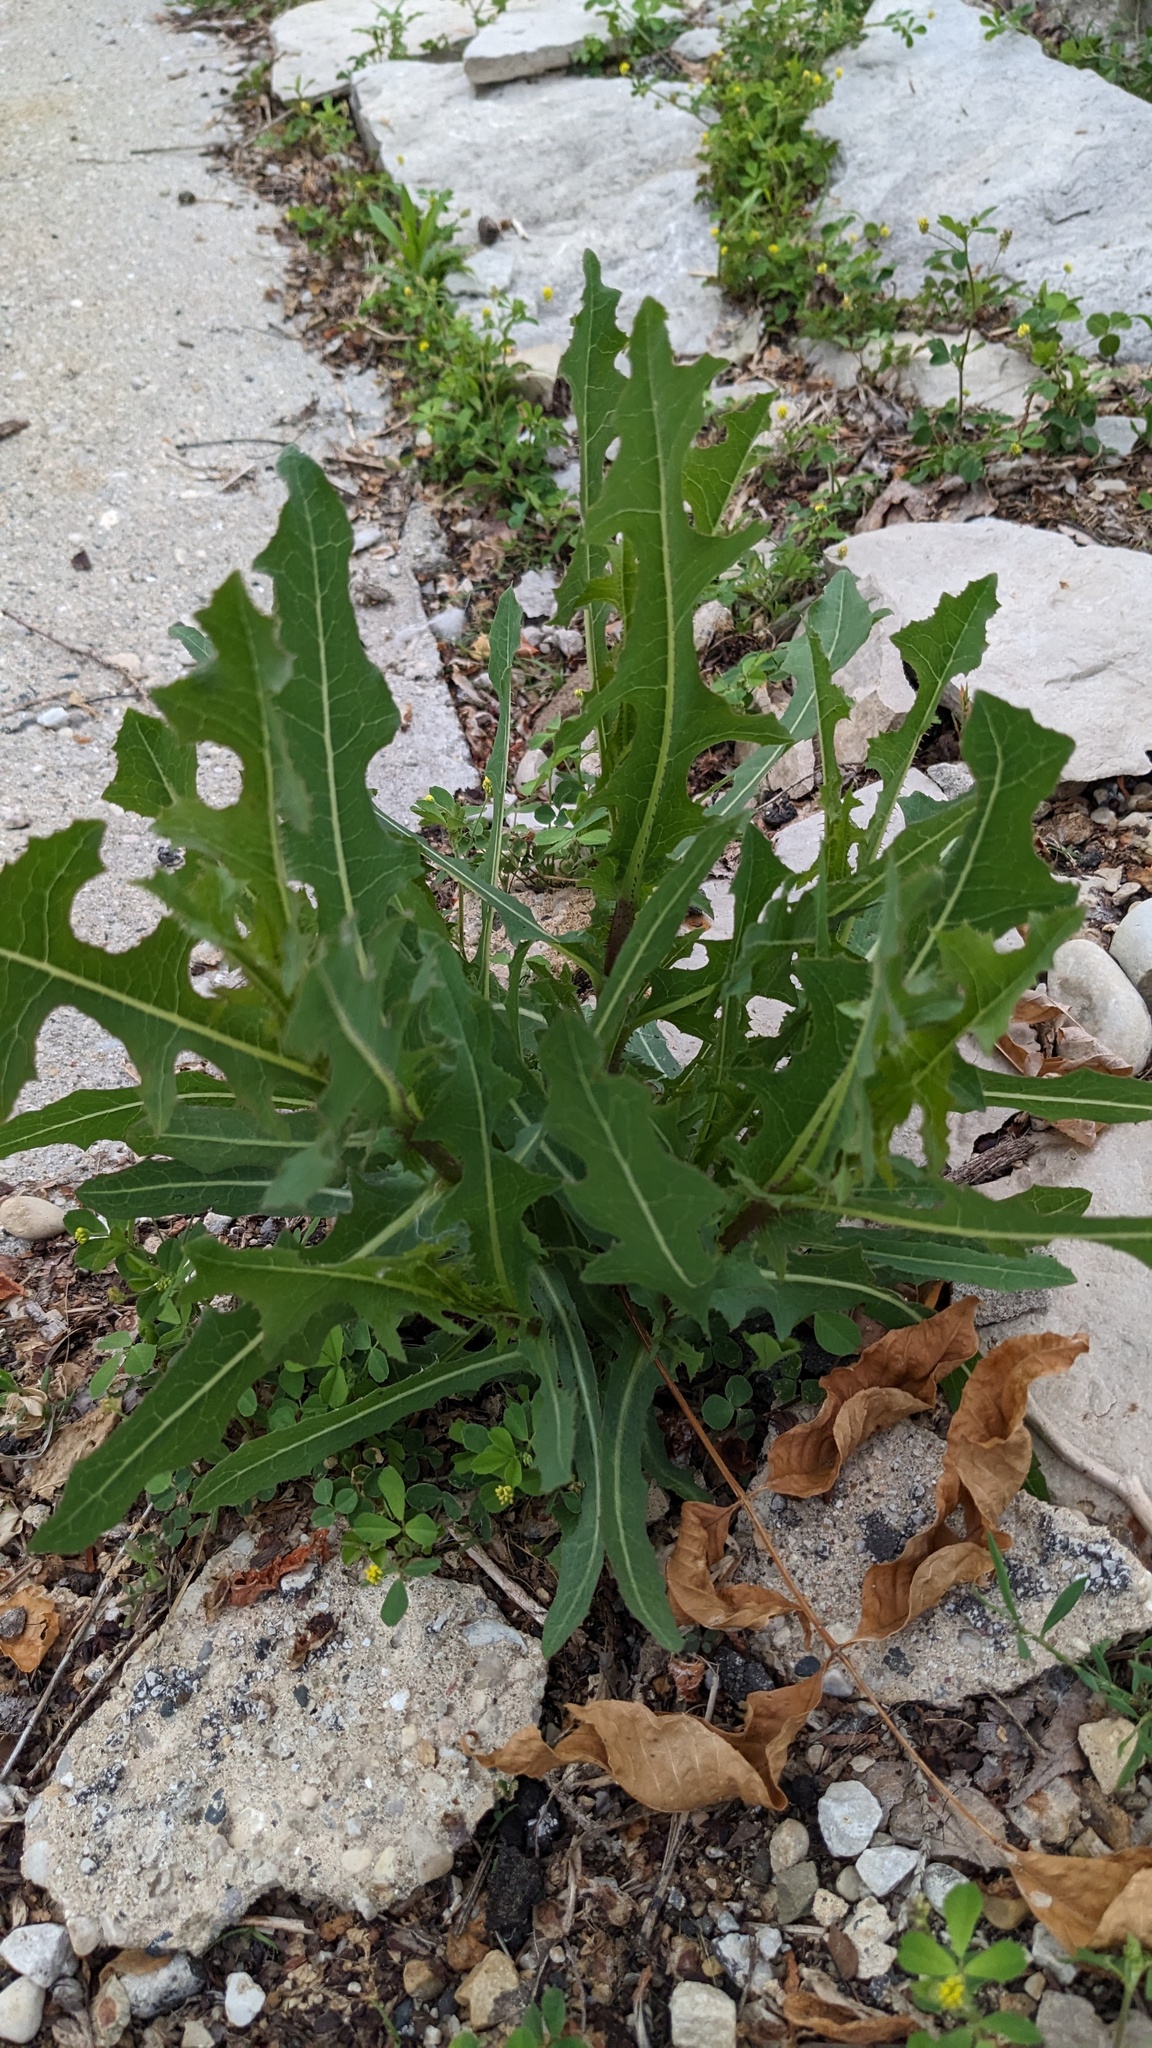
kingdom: Plantae
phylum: Tracheophyta
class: Magnoliopsida
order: Asterales
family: Asteraceae
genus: Lactuca
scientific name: Lactuca serriola
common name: Prickly lettuce
